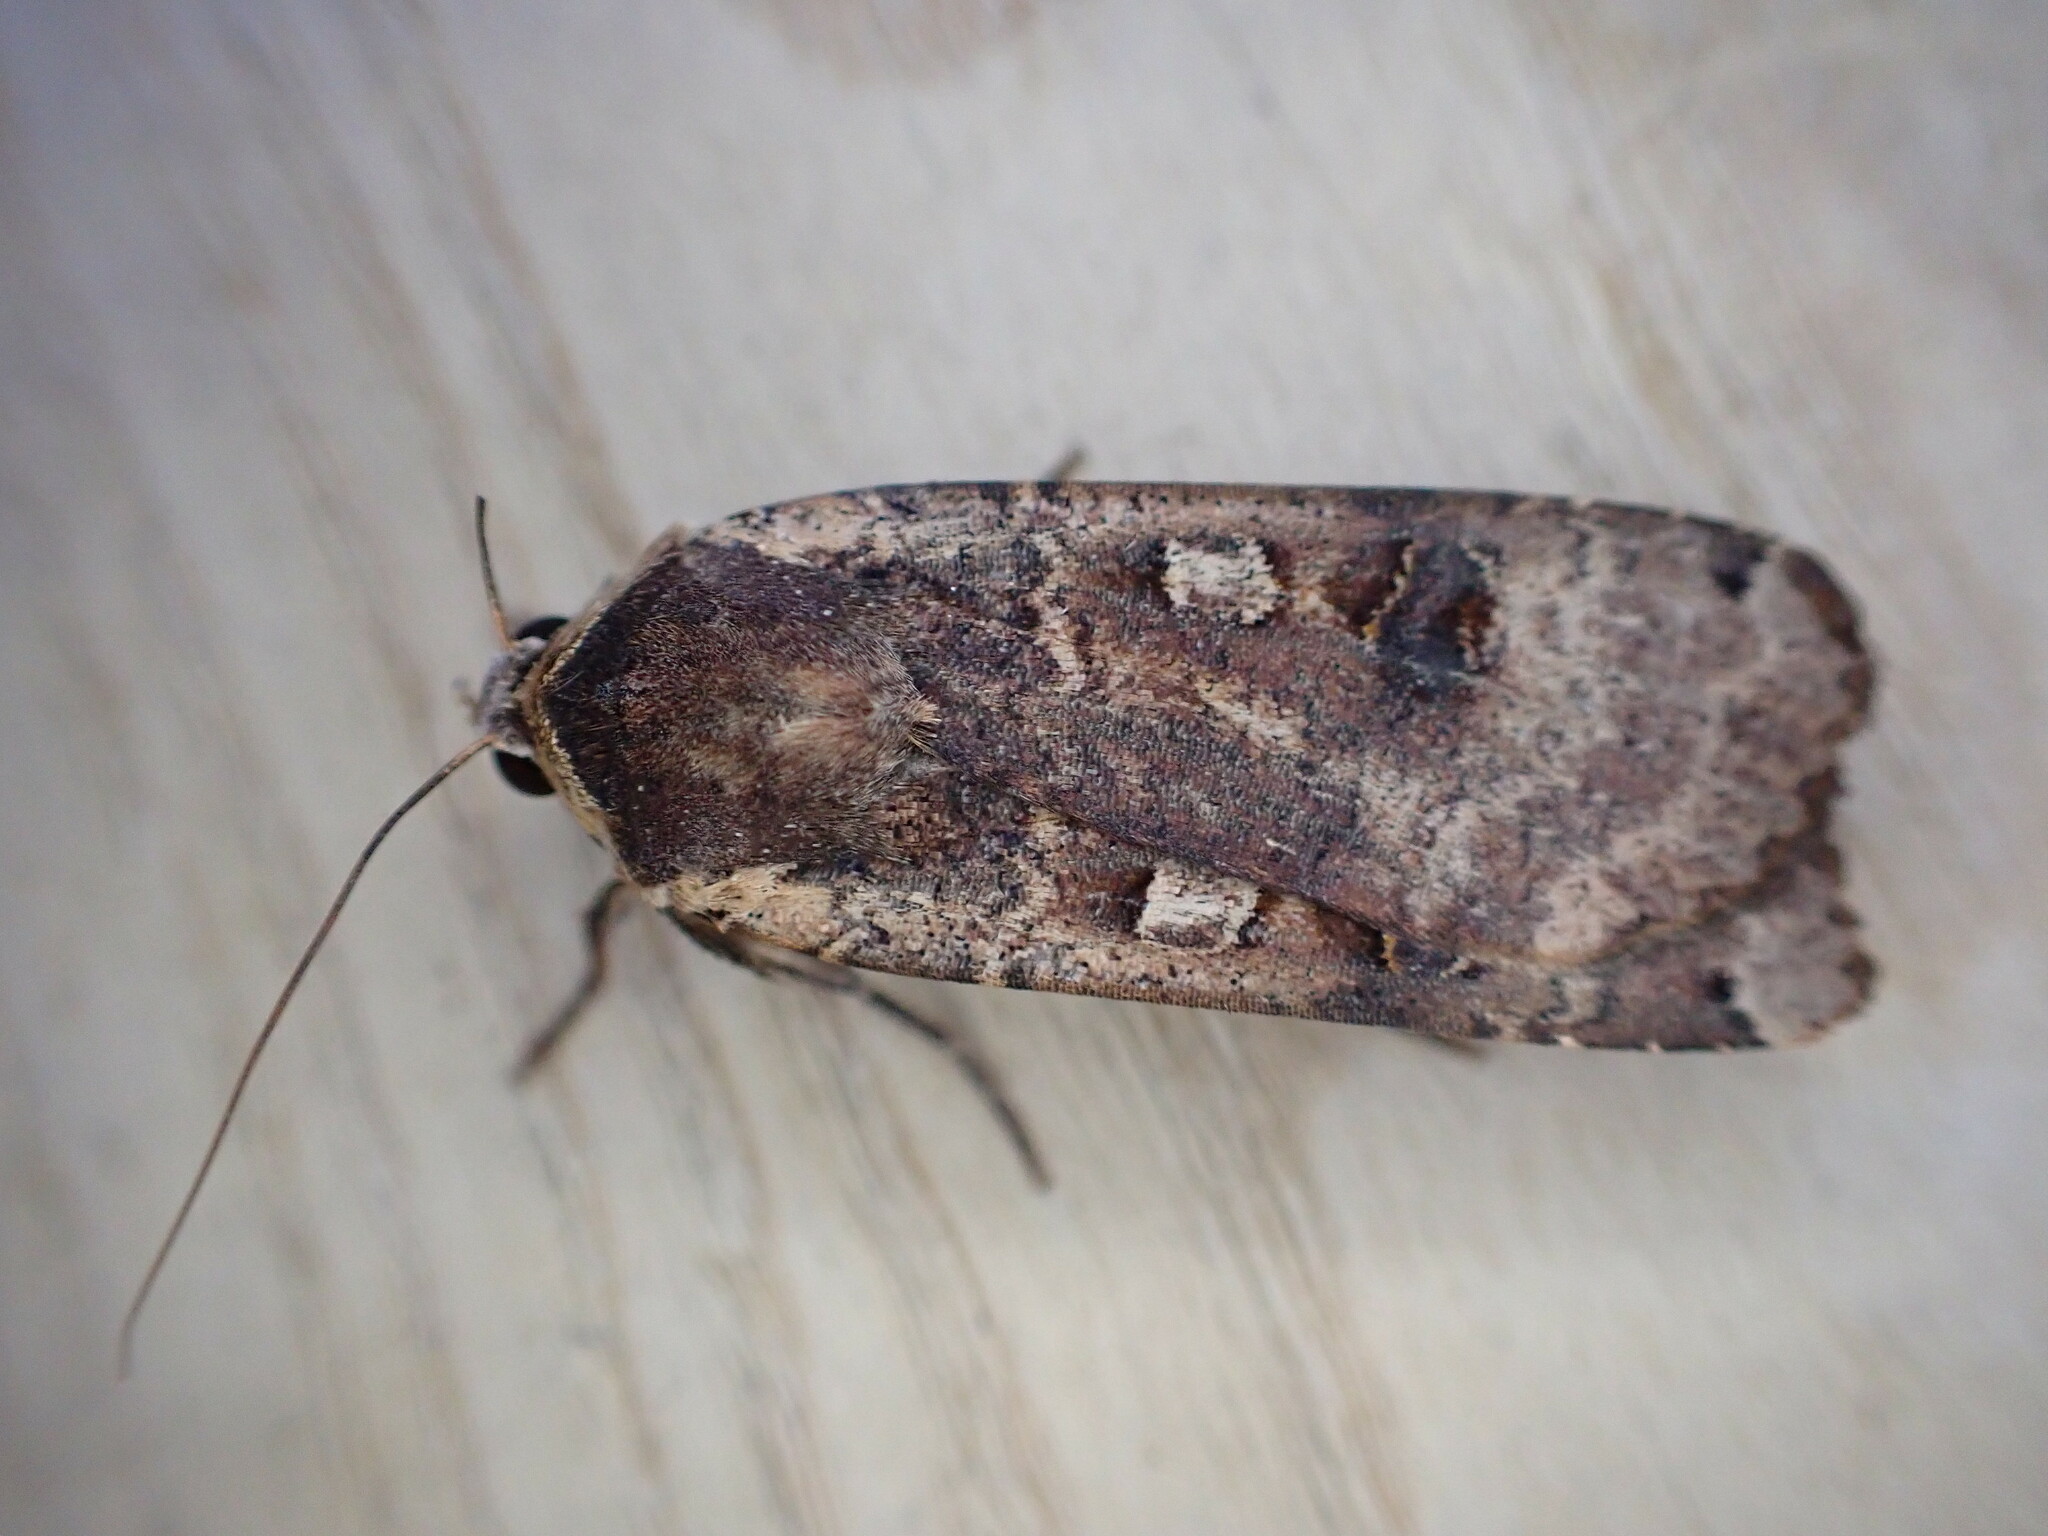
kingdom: Animalia
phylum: Arthropoda
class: Insecta
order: Lepidoptera
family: Noctuidae
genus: Noctua
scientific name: Noctua pronuba
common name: Large yellow underwing
